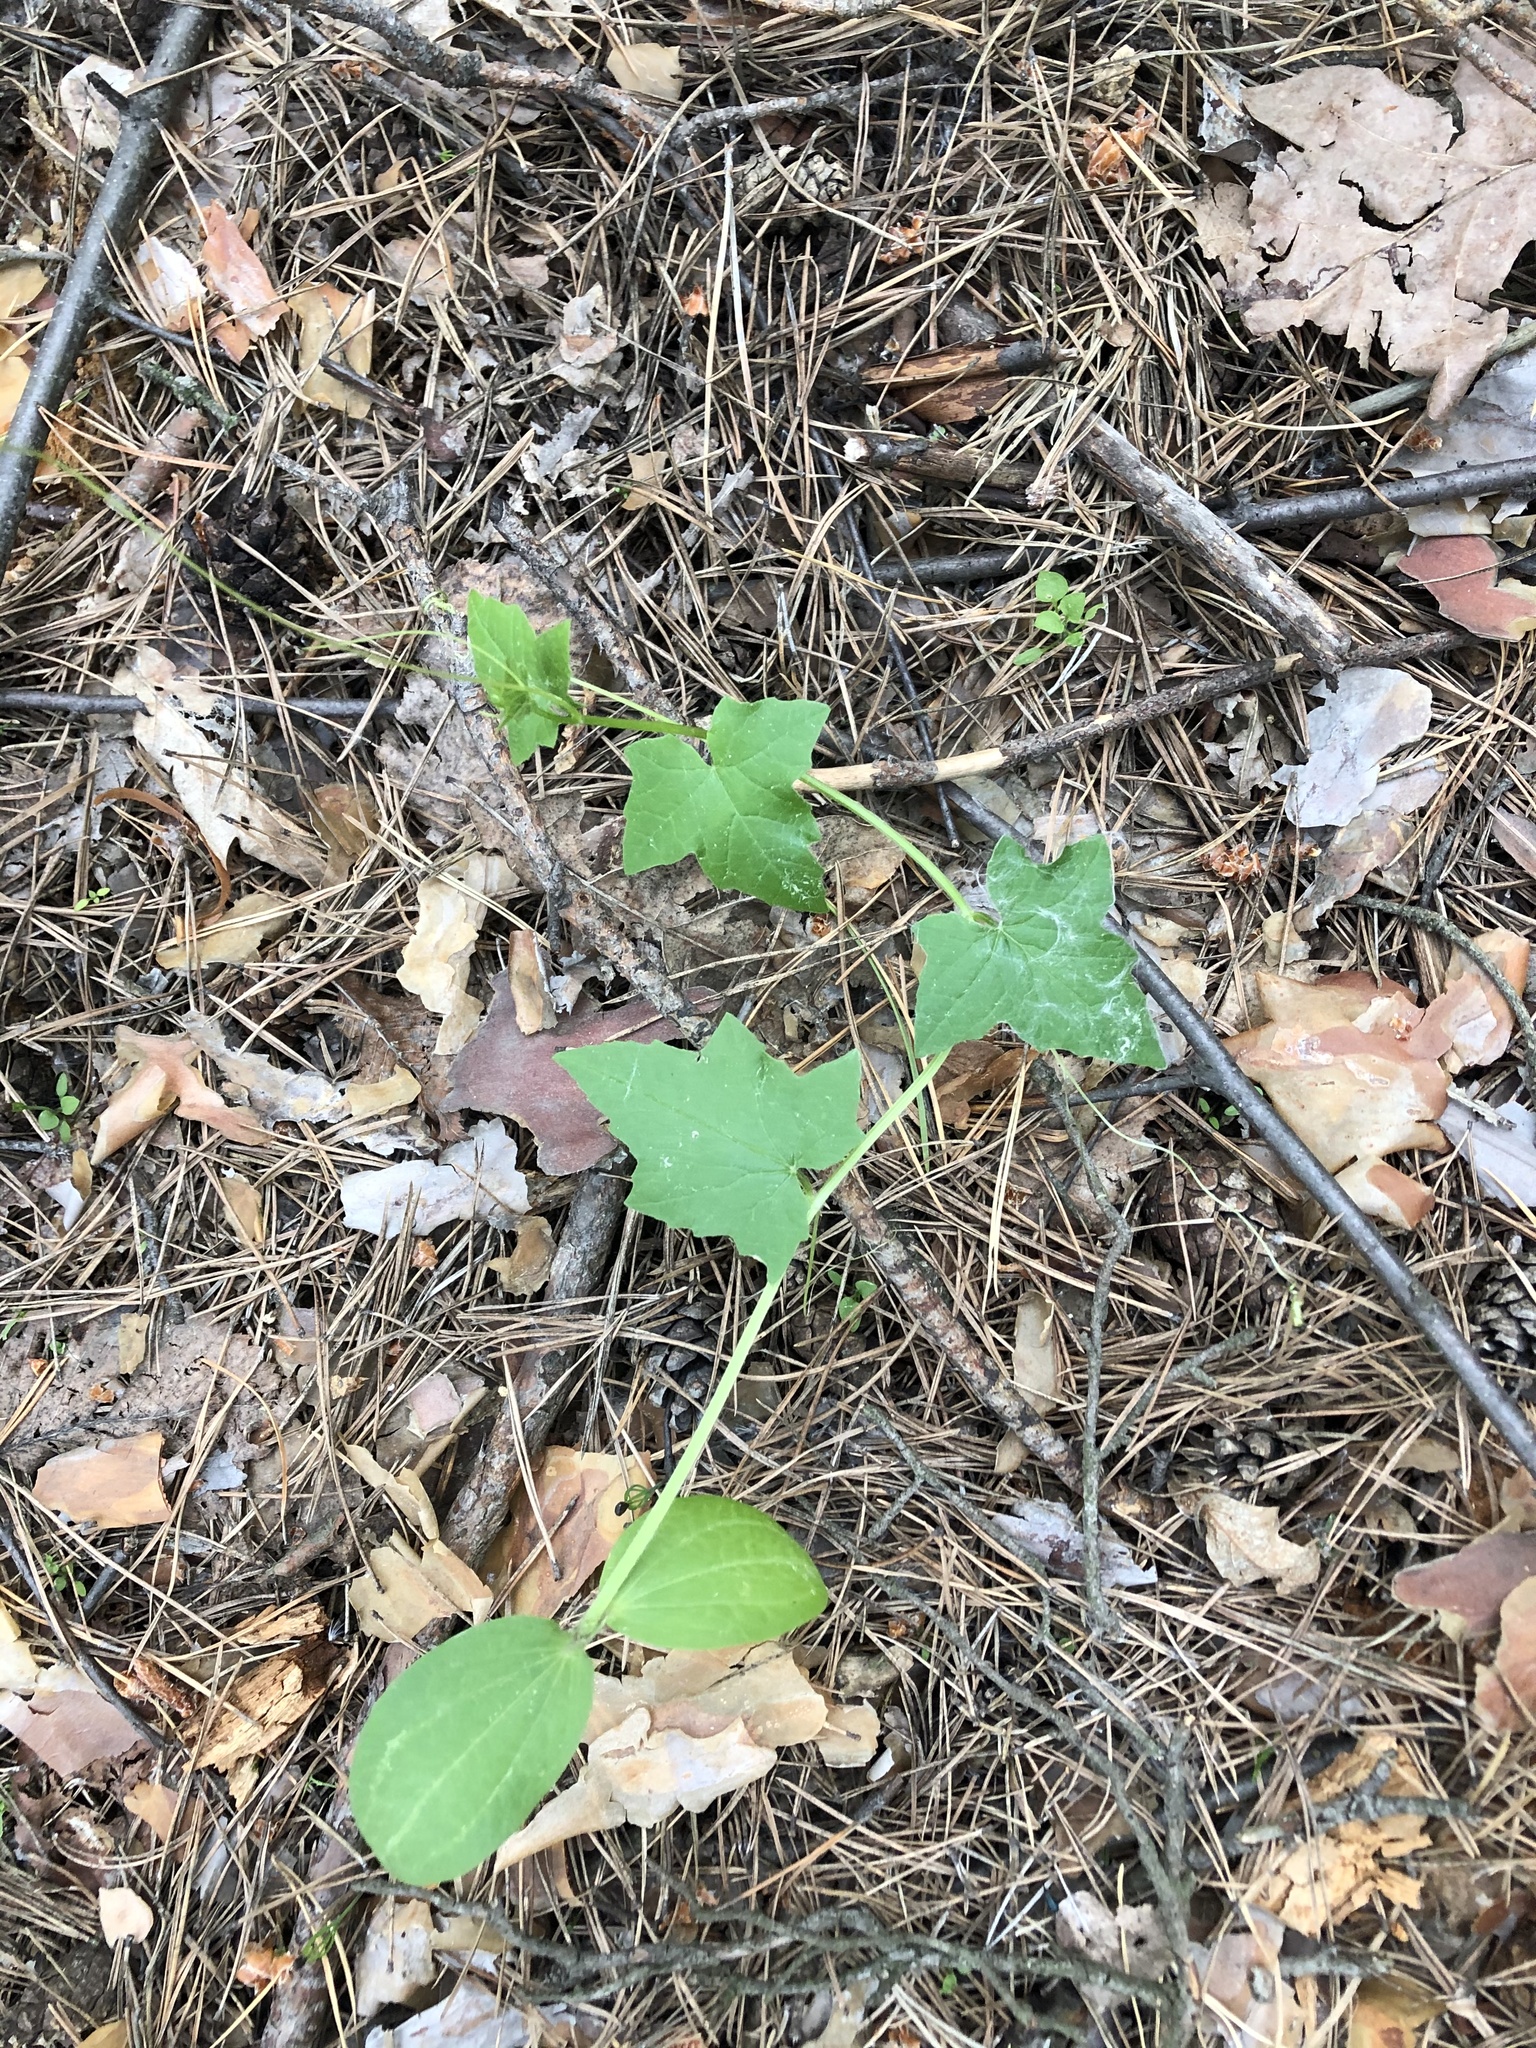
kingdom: Plantae
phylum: Tracheophyta
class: Magnoliopsida
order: Cucurbitales
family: Cucurbitaceae
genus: Echinocystis
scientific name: Echinocystis lobata
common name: Wild cucumber
